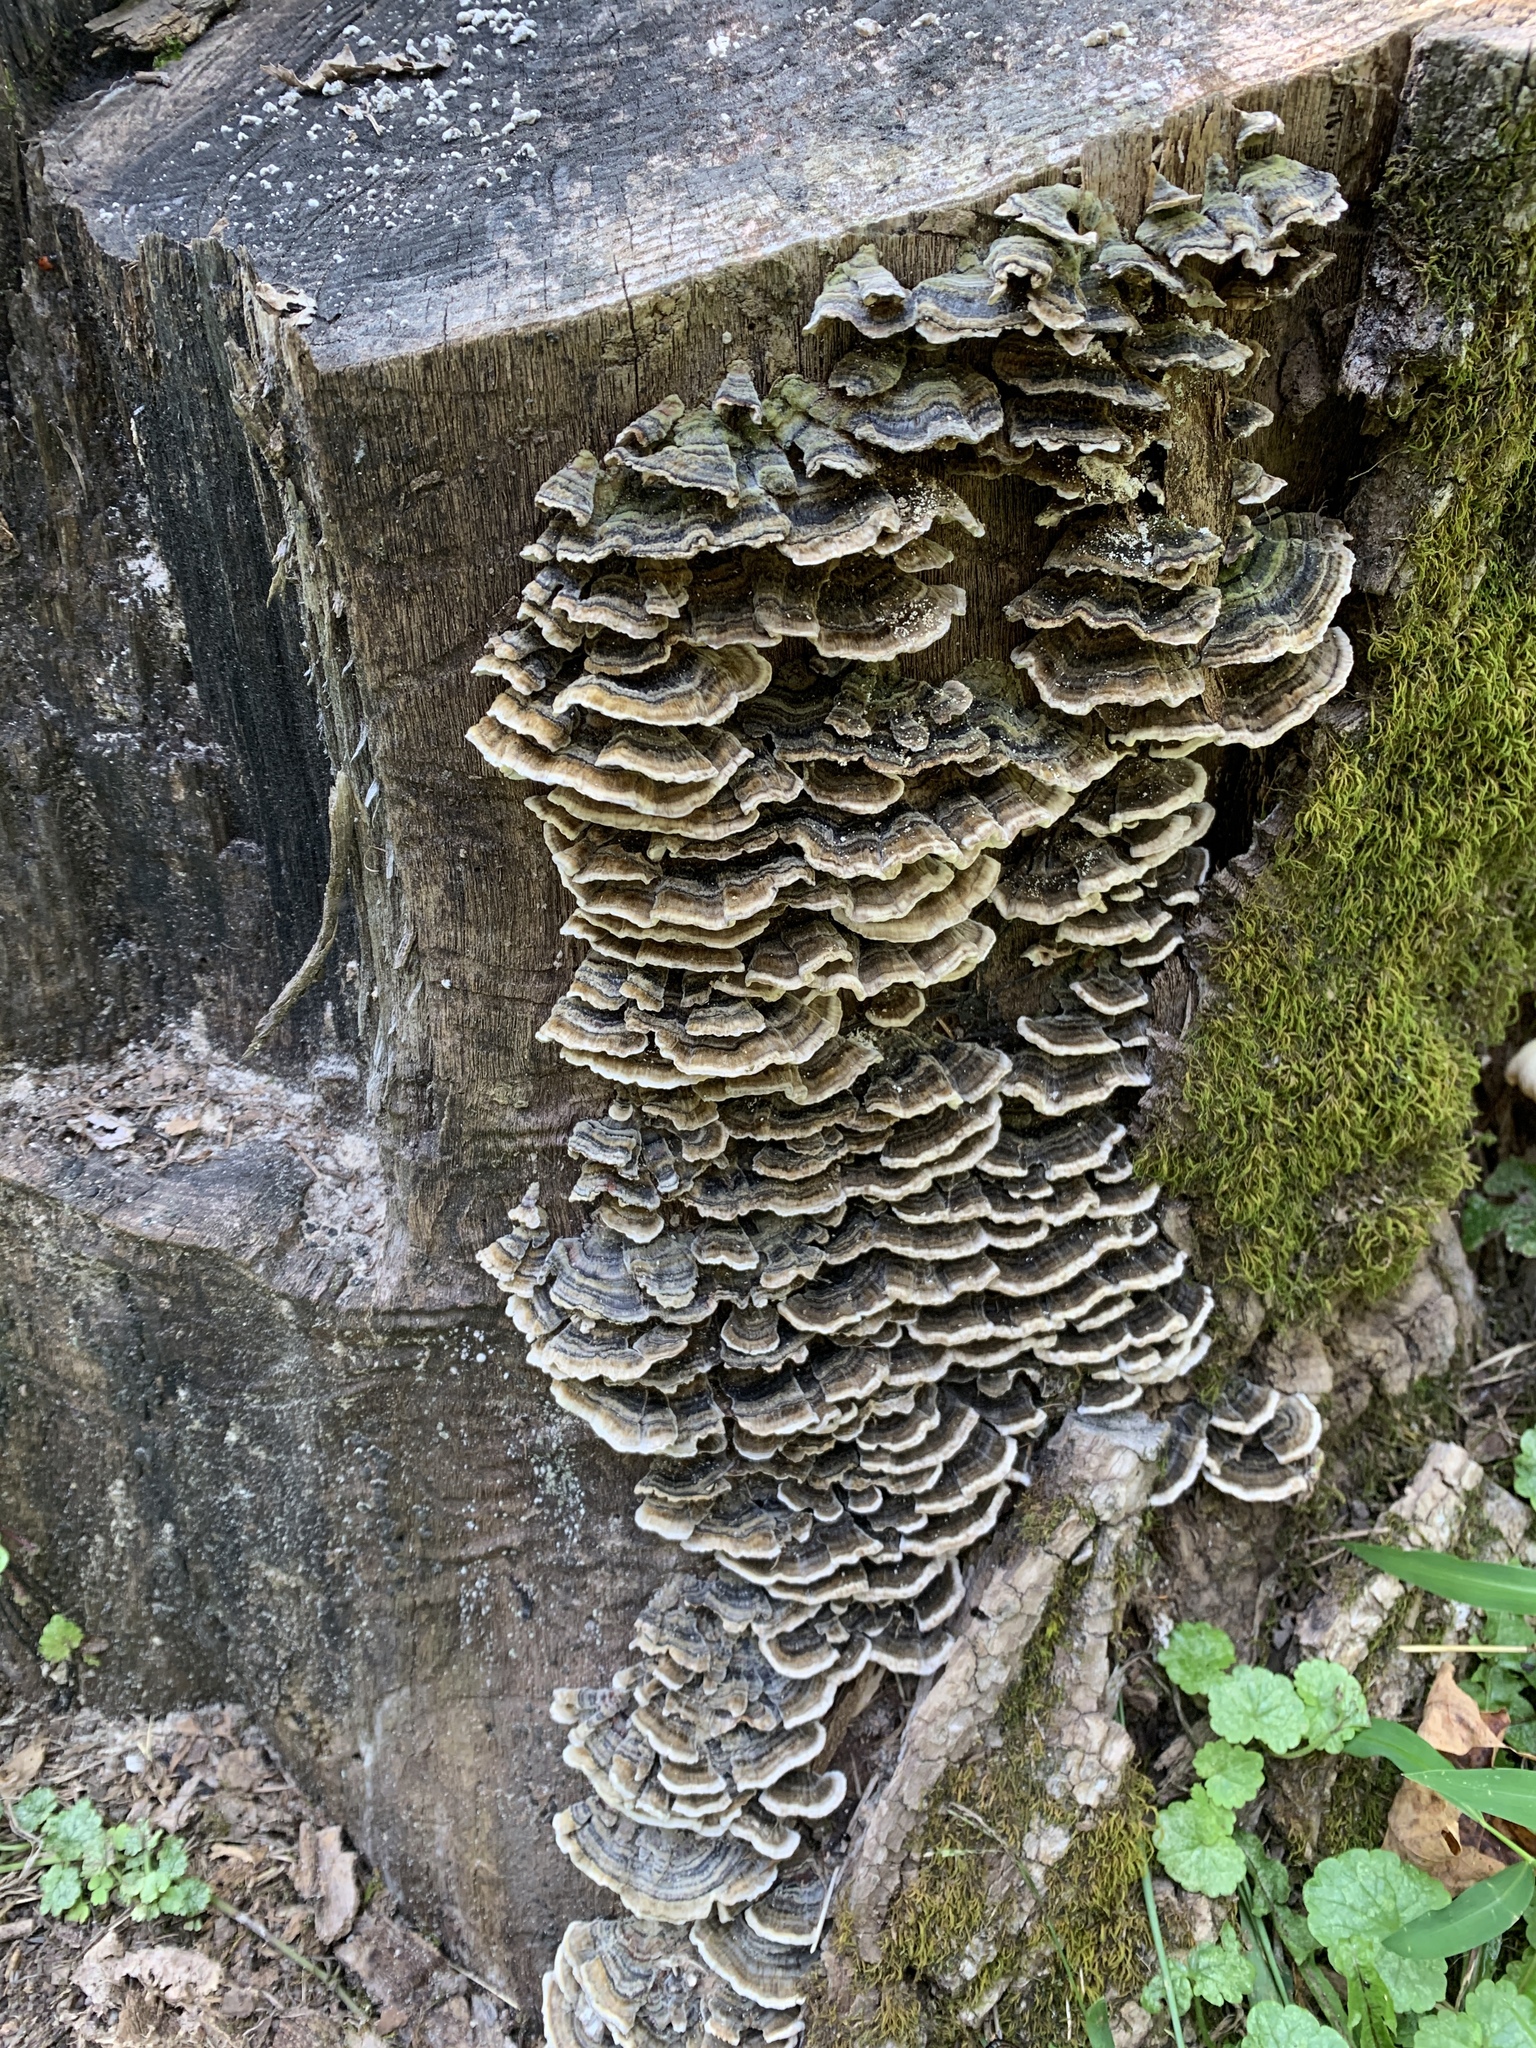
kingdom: Fungi
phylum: Basidiomycota
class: Agaricomycetes
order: Polyporales
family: Polyporaceae
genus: Trametes
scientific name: Trametes versicolor
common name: Turkeytail
